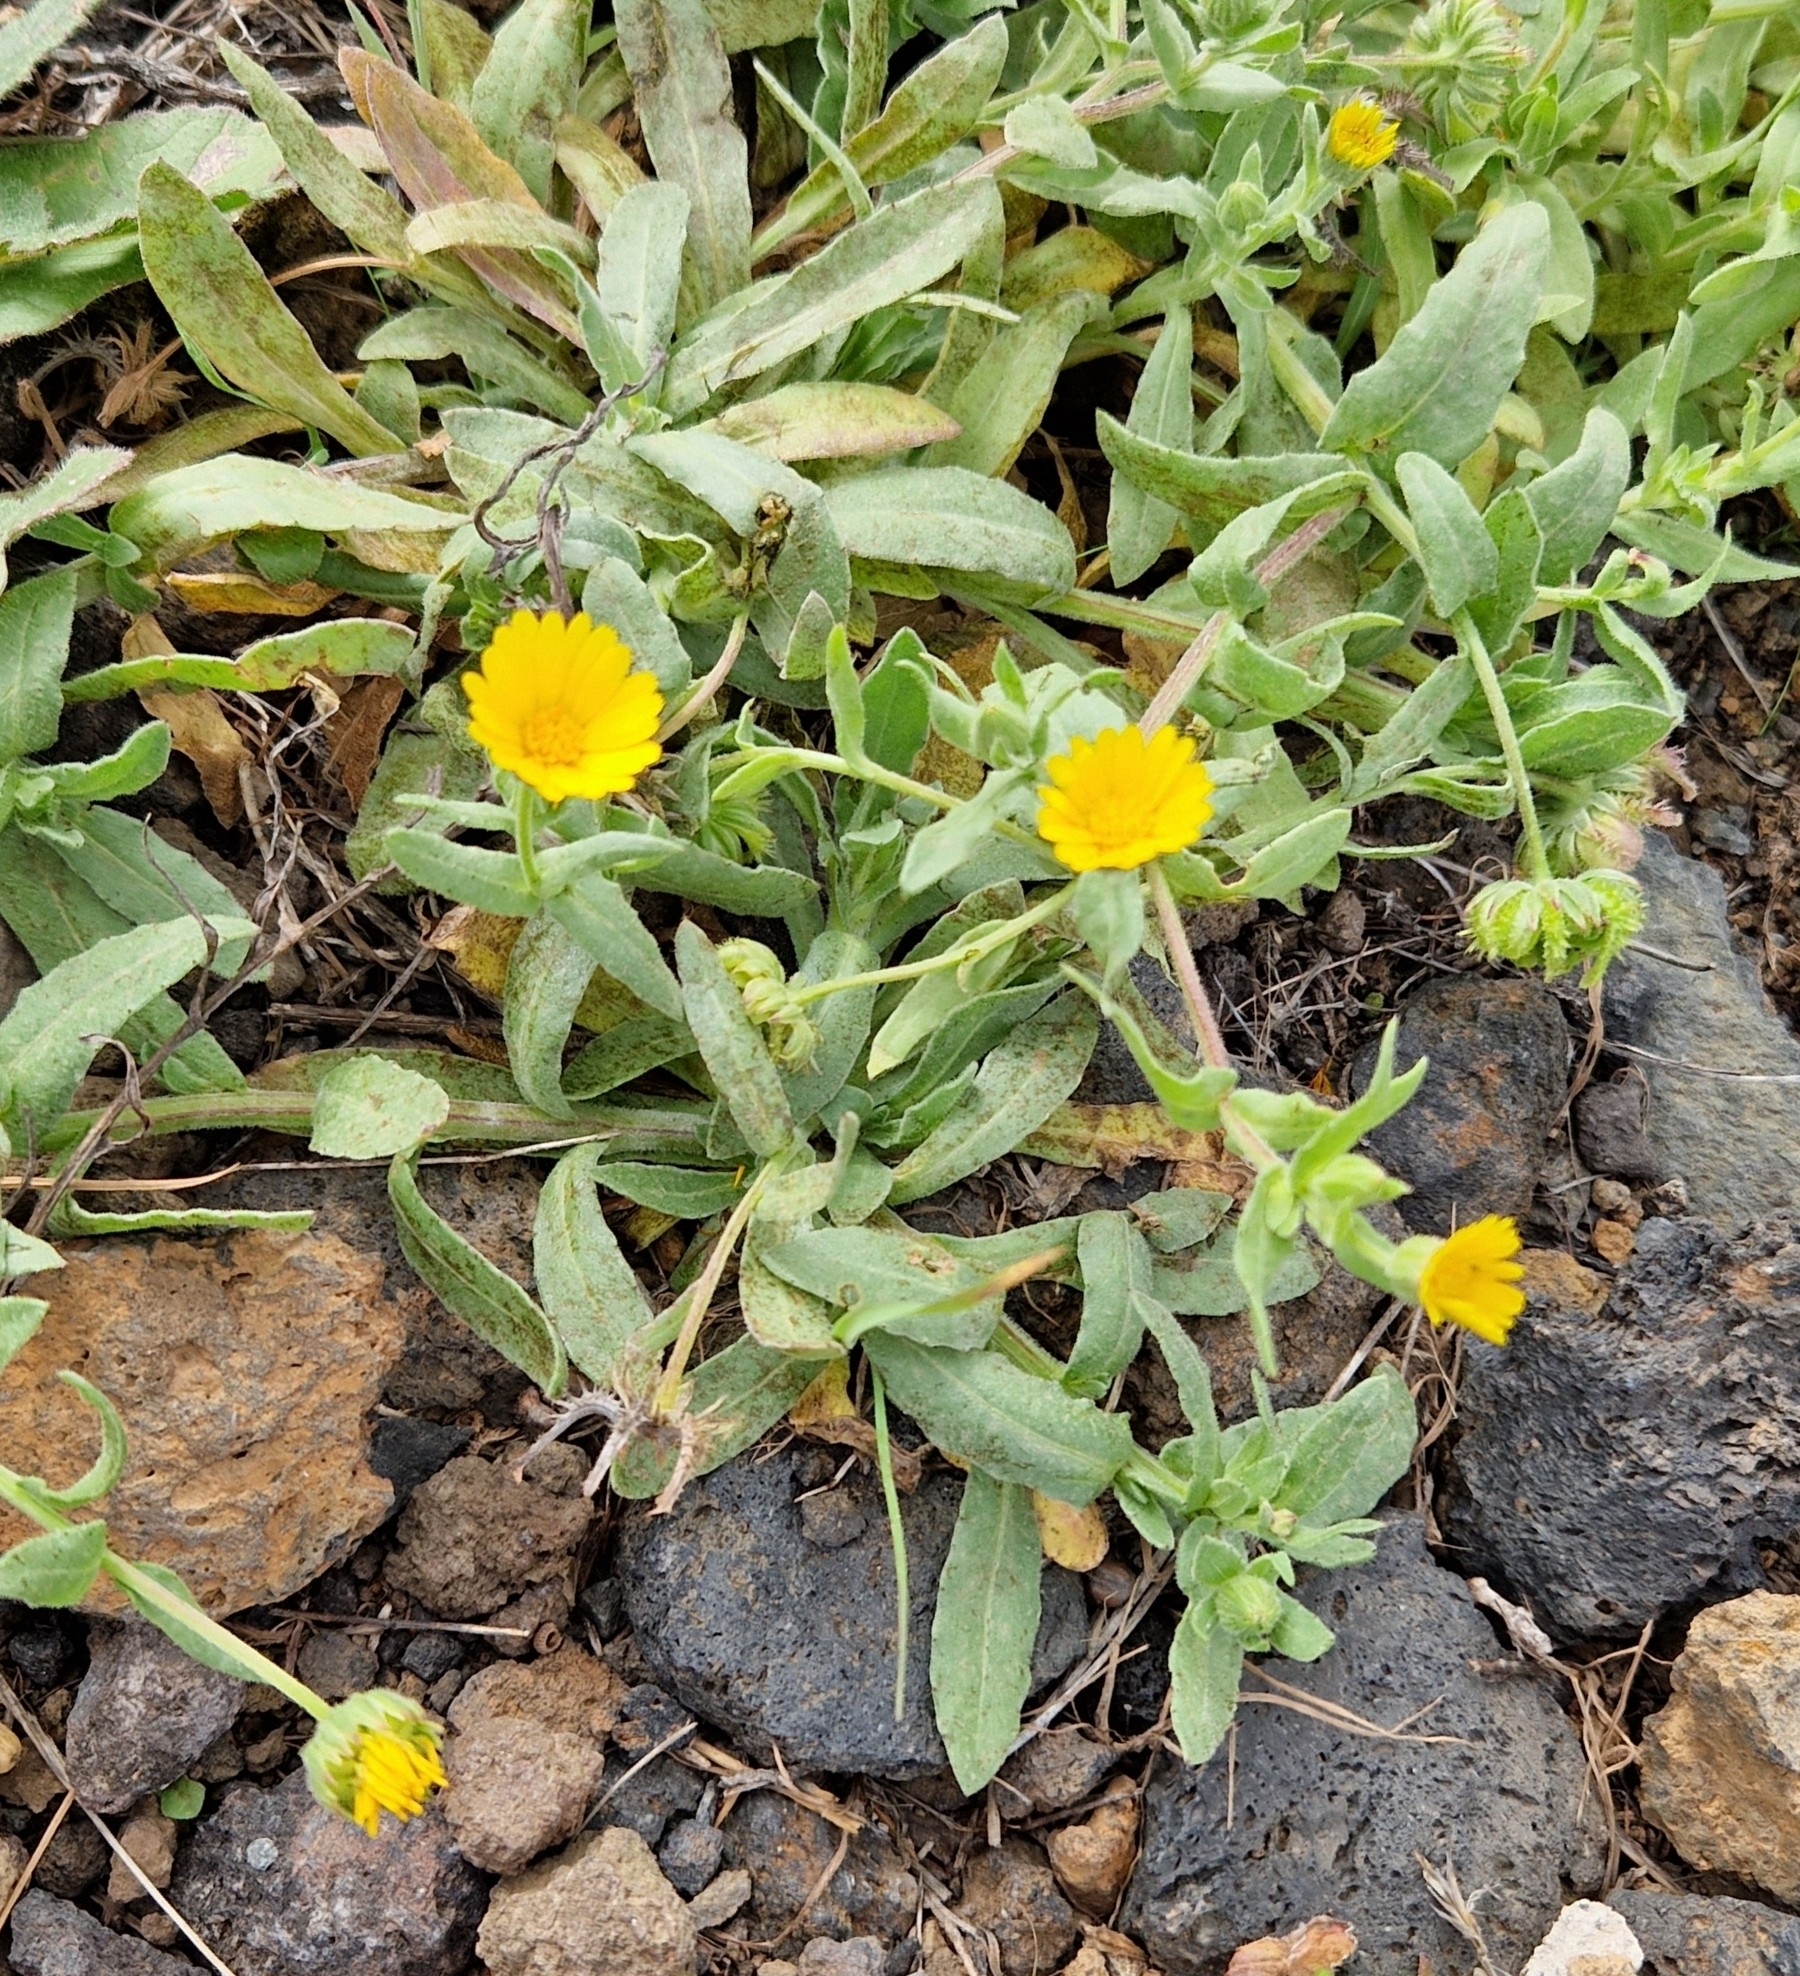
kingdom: Plantae
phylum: Tracheophyta
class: Magnoliopsida
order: Asterales
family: Asteraceae
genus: Calendula
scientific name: Calendula arvensis
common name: Field marigold
